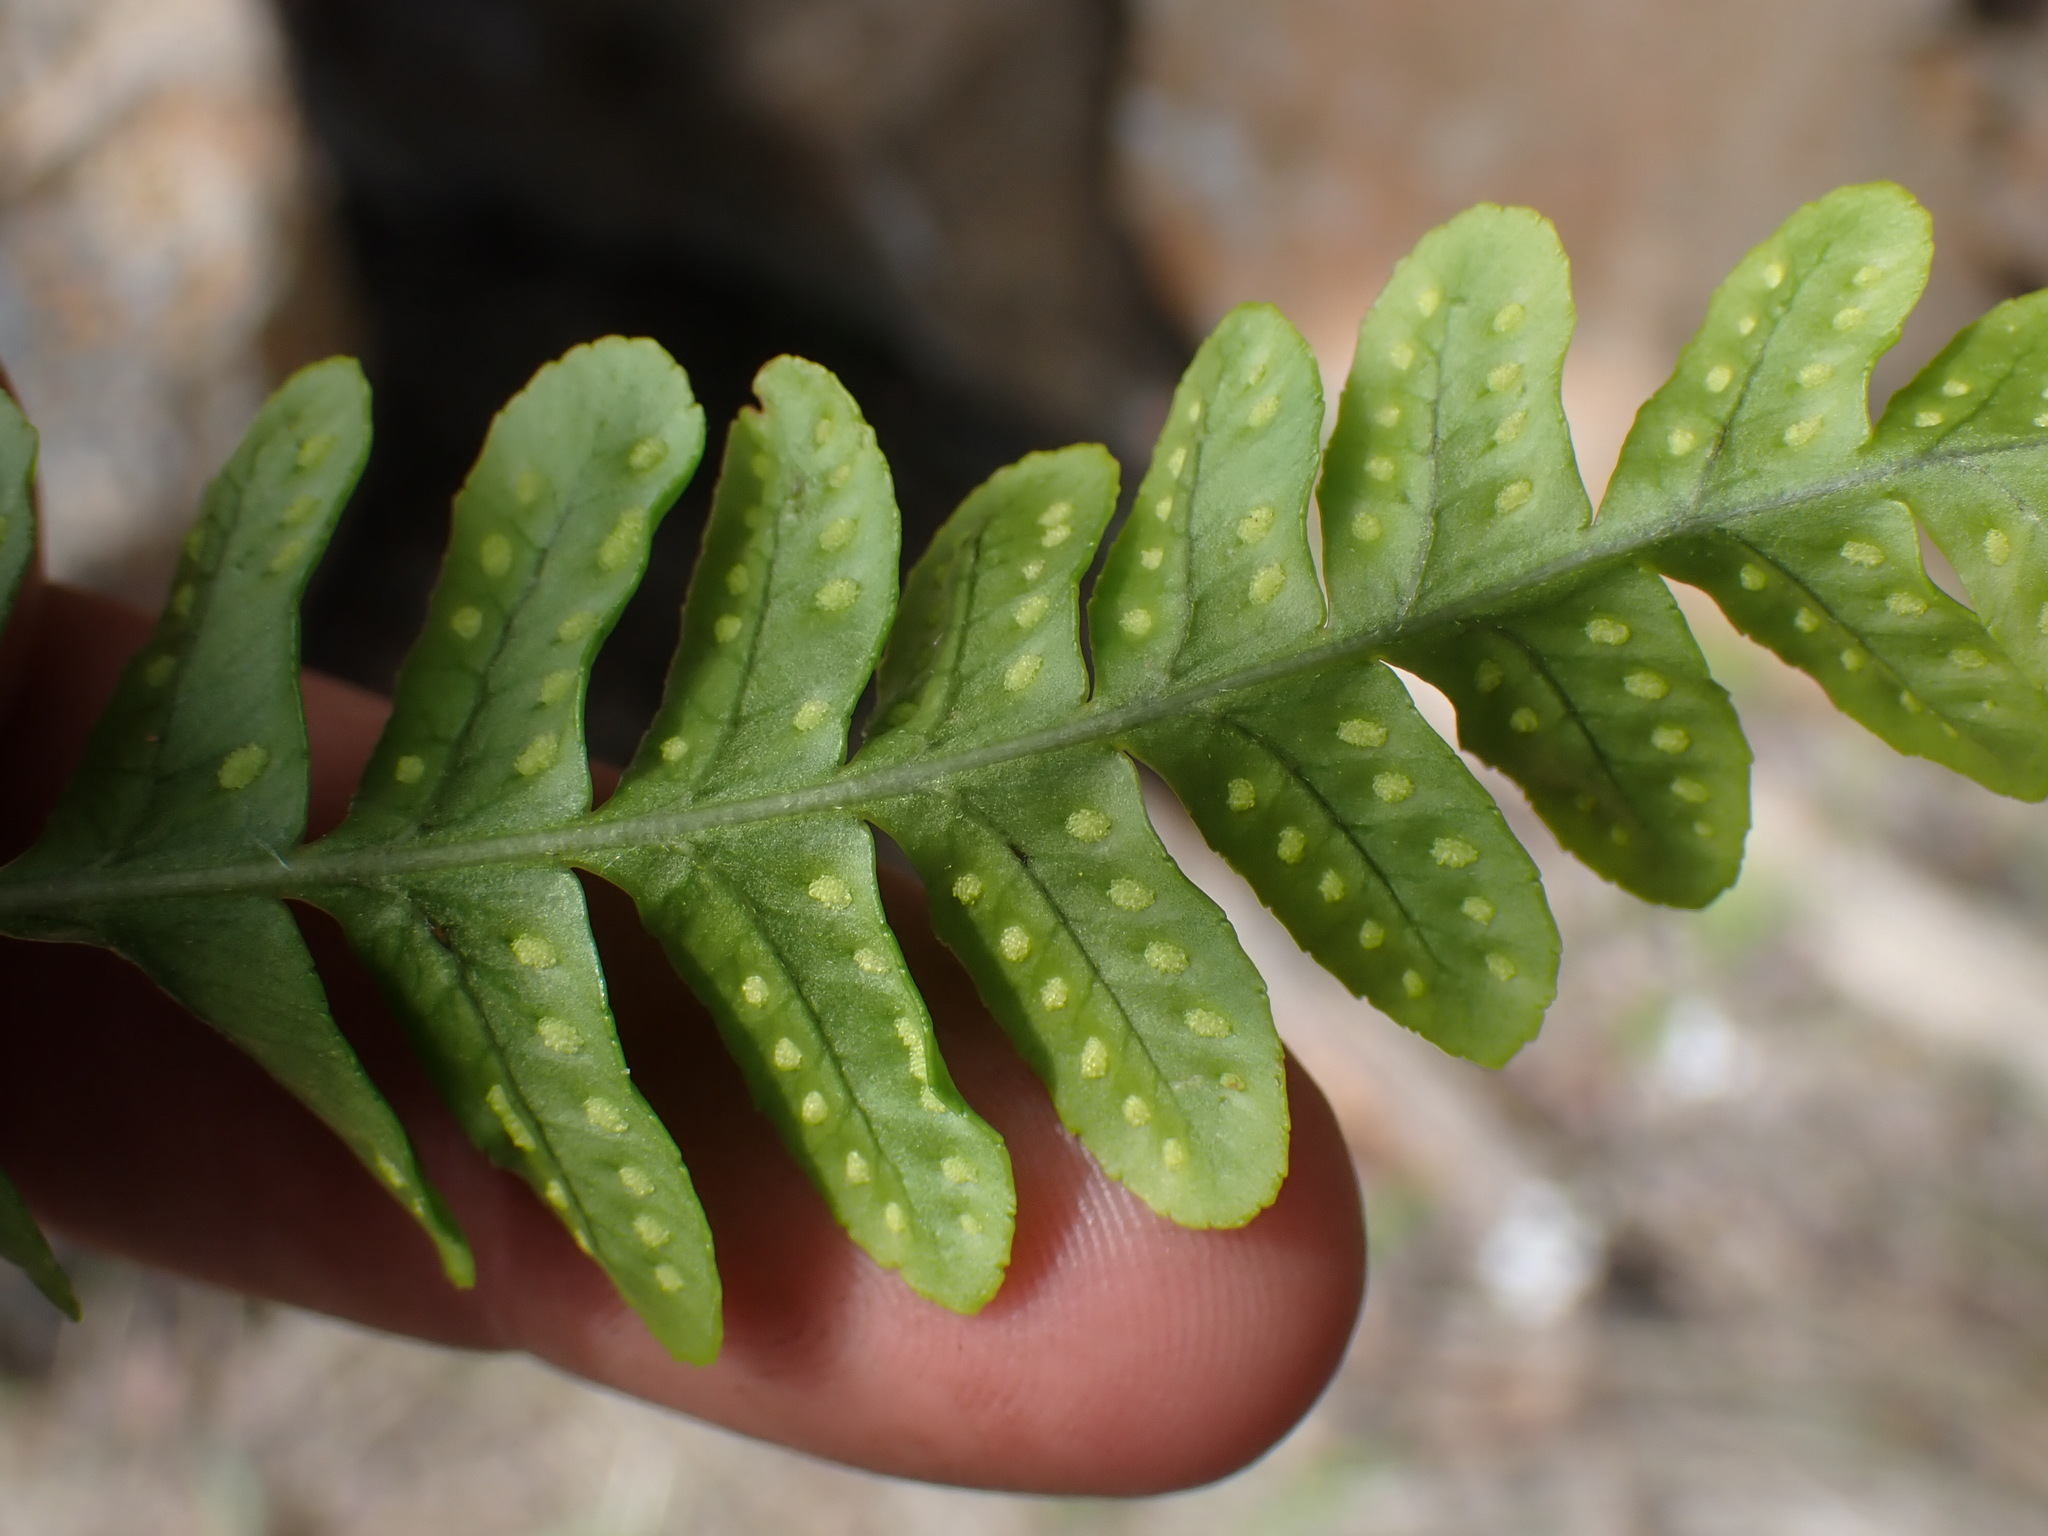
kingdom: Plantae
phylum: Tracheophyta
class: Polypodiopsida
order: Polypodiales
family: Polypodiaceae
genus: Polypodium
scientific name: Polypodium hesperium
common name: Western polypody
